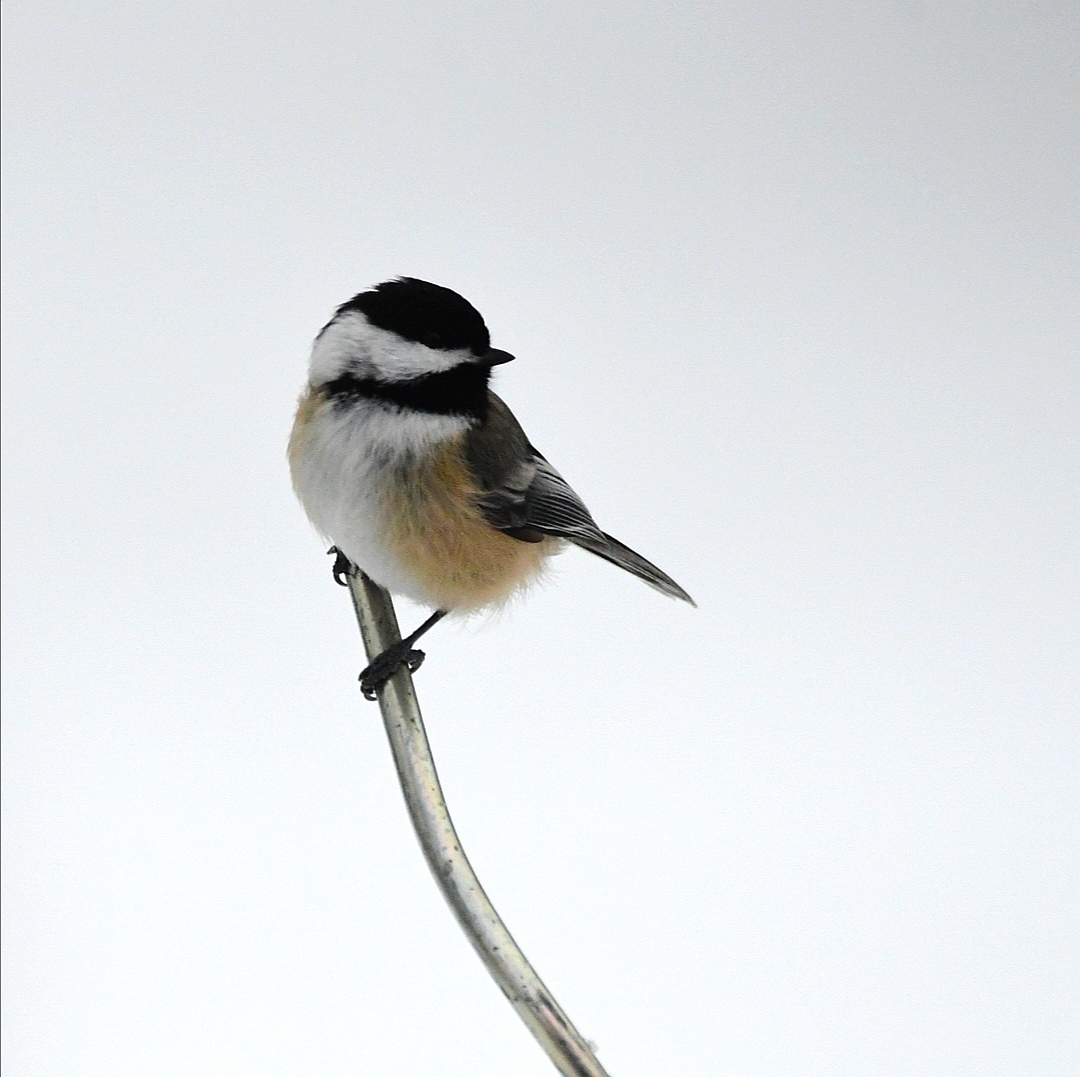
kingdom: Animalia
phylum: Chordata
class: Aves
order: Passeriformes
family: Paridae
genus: Poecile
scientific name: Poecile atricapillus
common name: Black-capped chickadee
